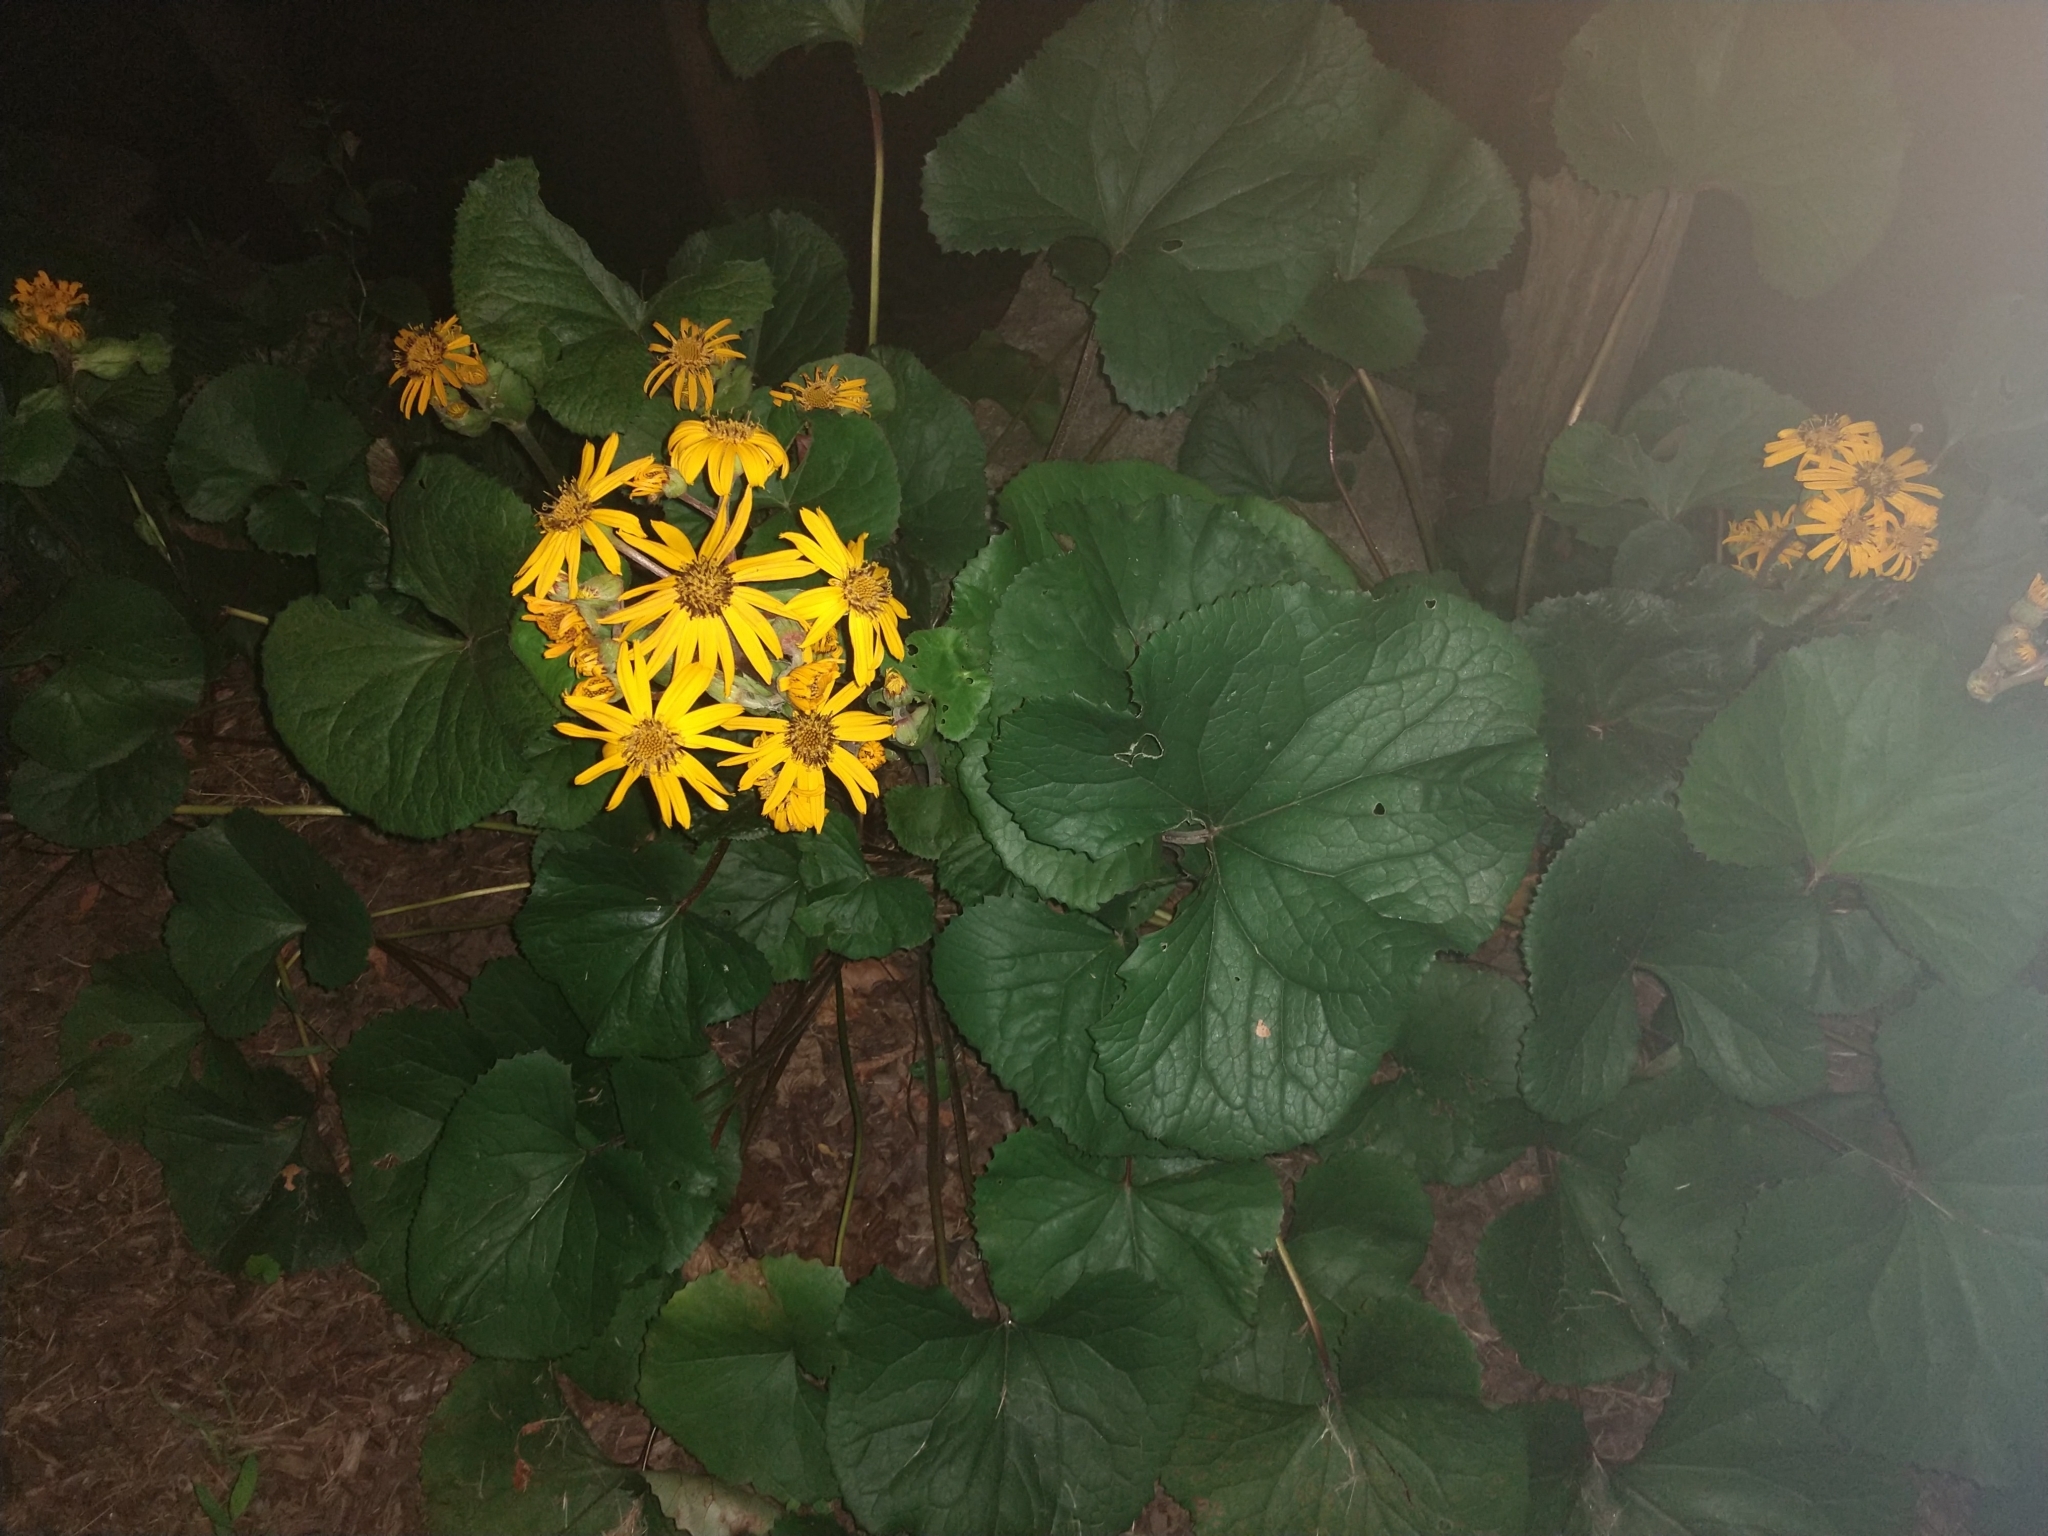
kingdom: Plantae
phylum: Tracheophyta
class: Magnoliopsida
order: Asterales
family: Asteraceae
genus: Packera
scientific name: Packera aurea
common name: Golden groundsel
